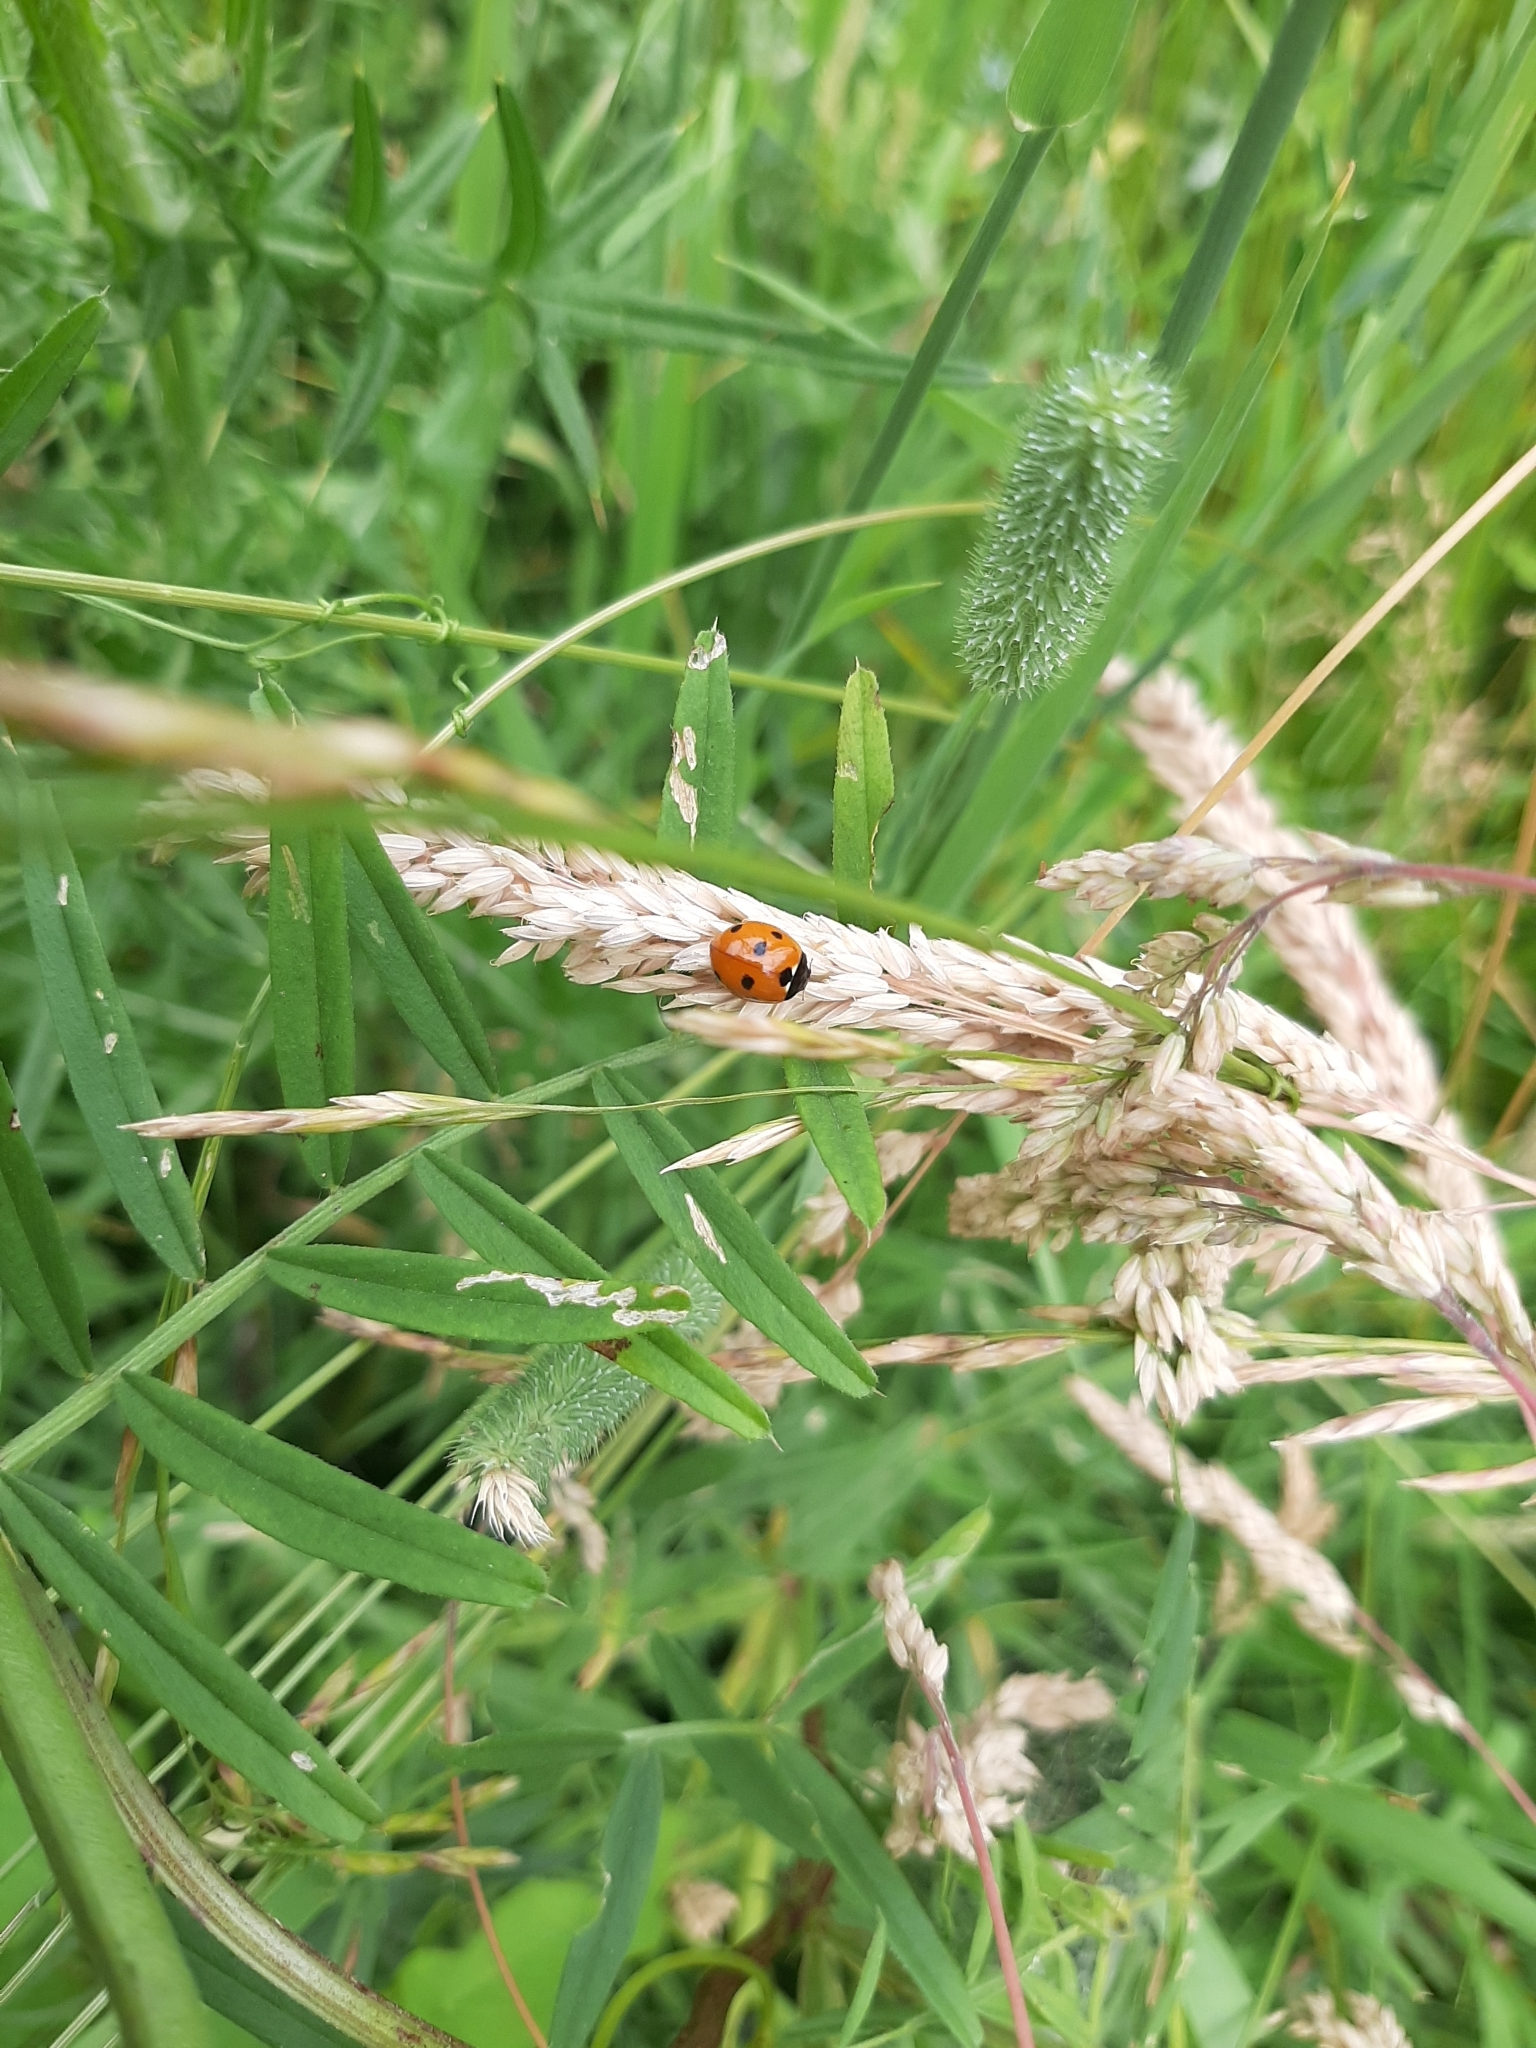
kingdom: Animalia
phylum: Arthropoda
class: Insecta
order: Coleoptera
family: Coccinellidae
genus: Coccinella
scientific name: Coccinella septempunctata
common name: Sevenspotted lady beetle
